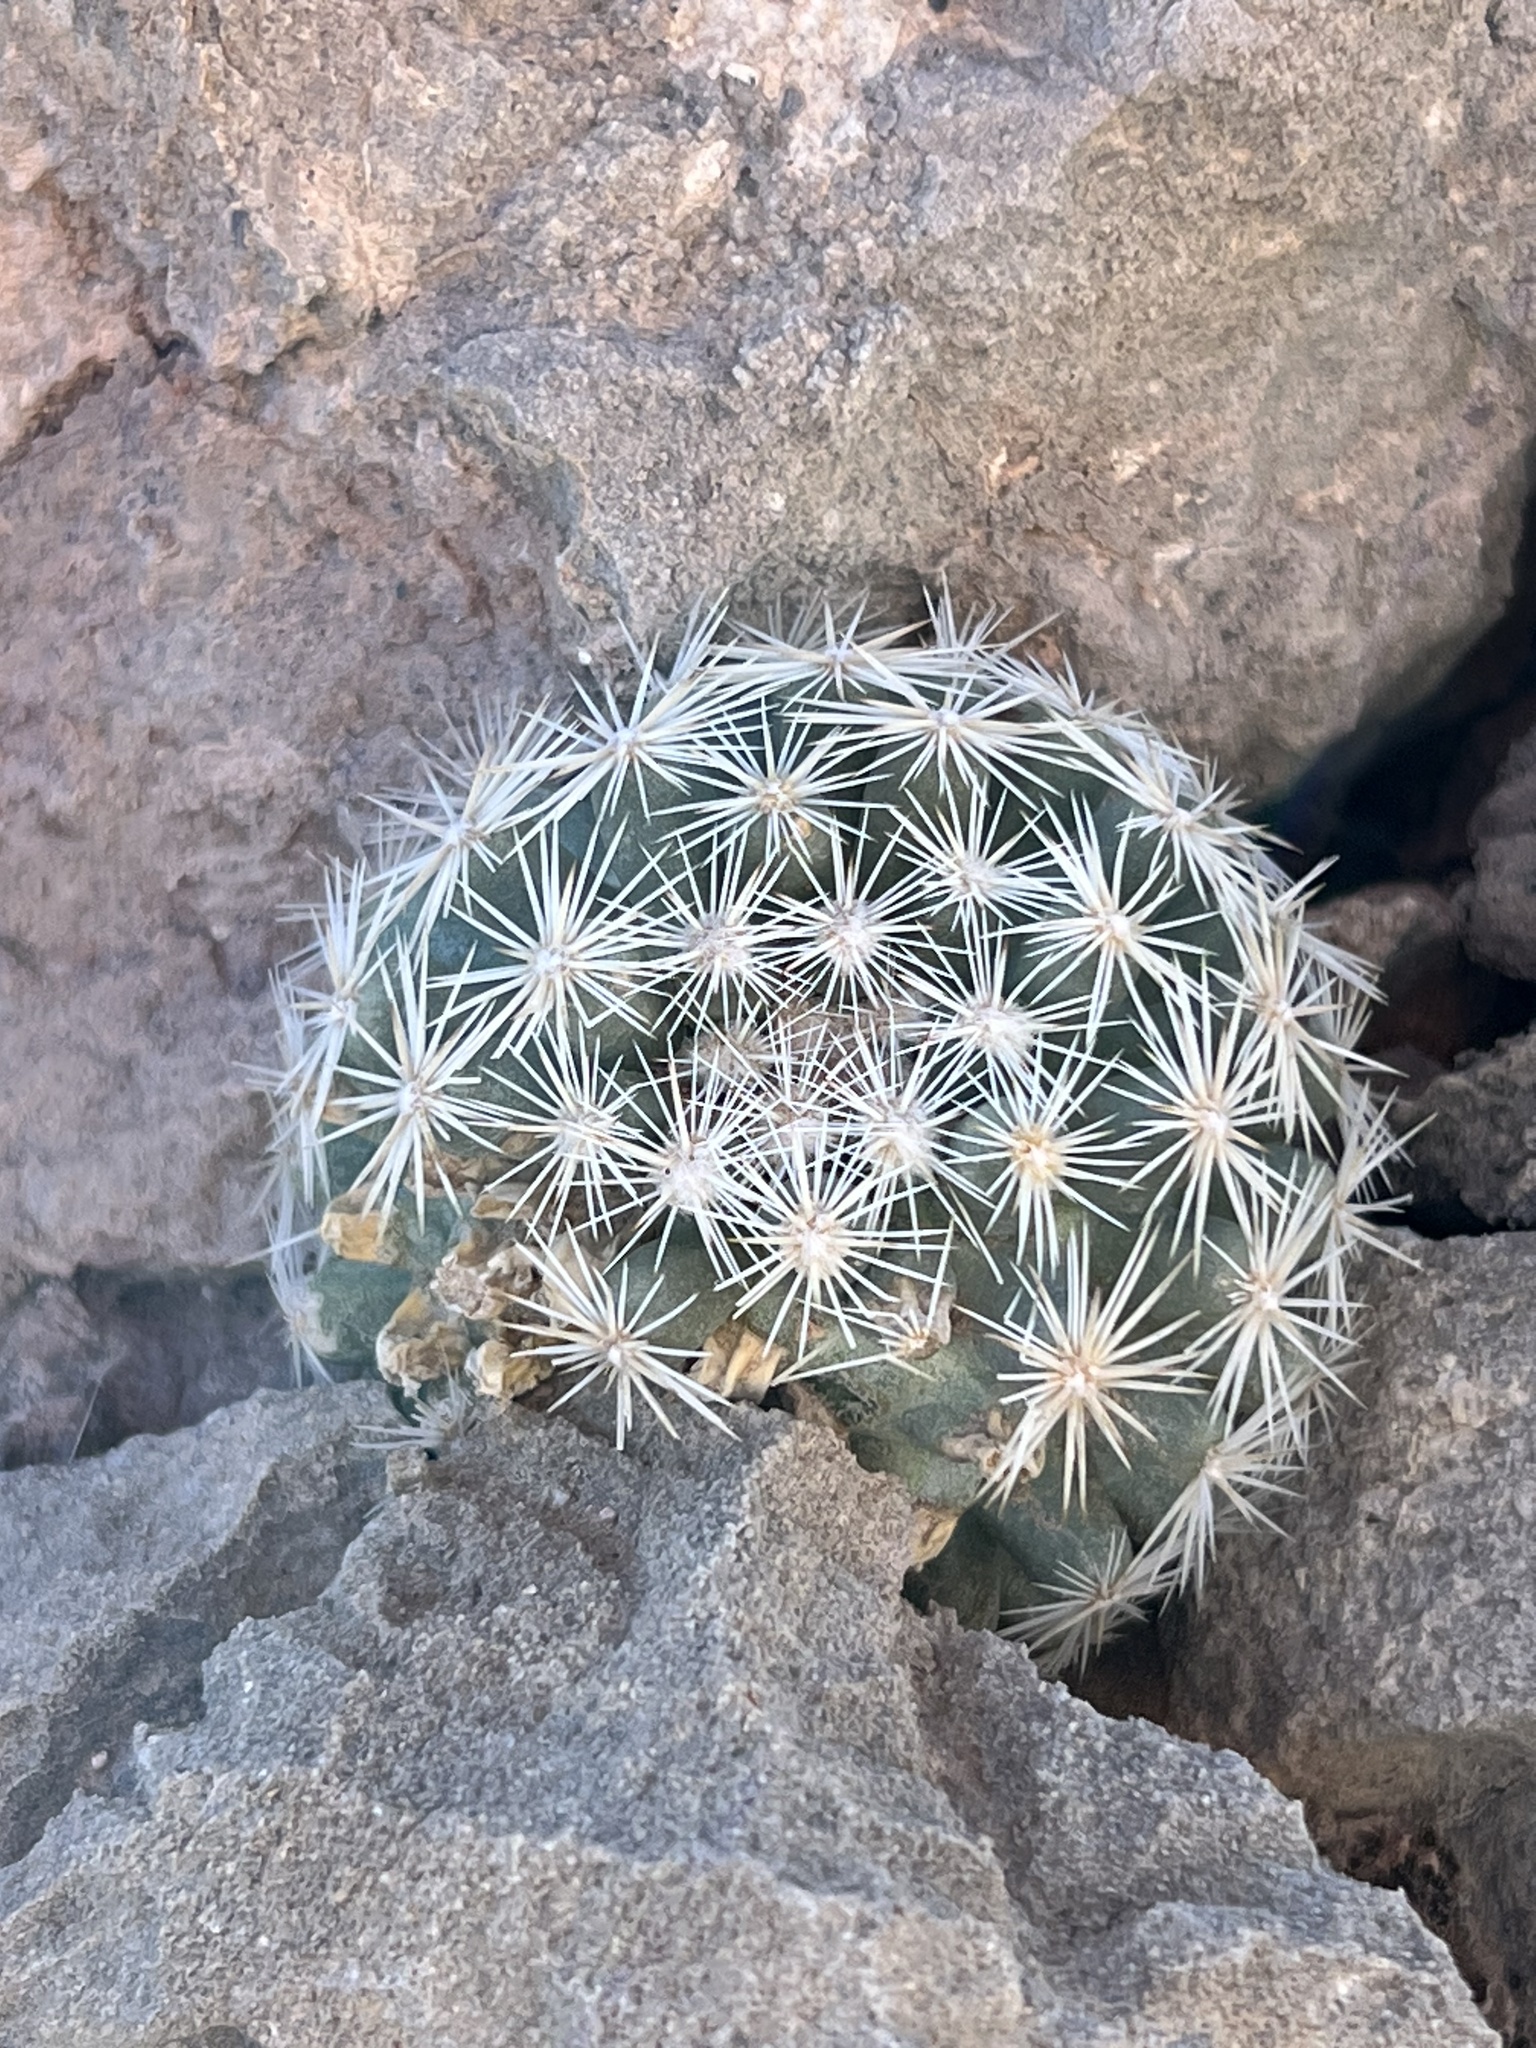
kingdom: Plantae
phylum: Tracheophyta
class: Magnoliopsida
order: Caryophyllales
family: Cactaceae
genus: Pelecyphora
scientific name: Pelecyphora dasyacantha
